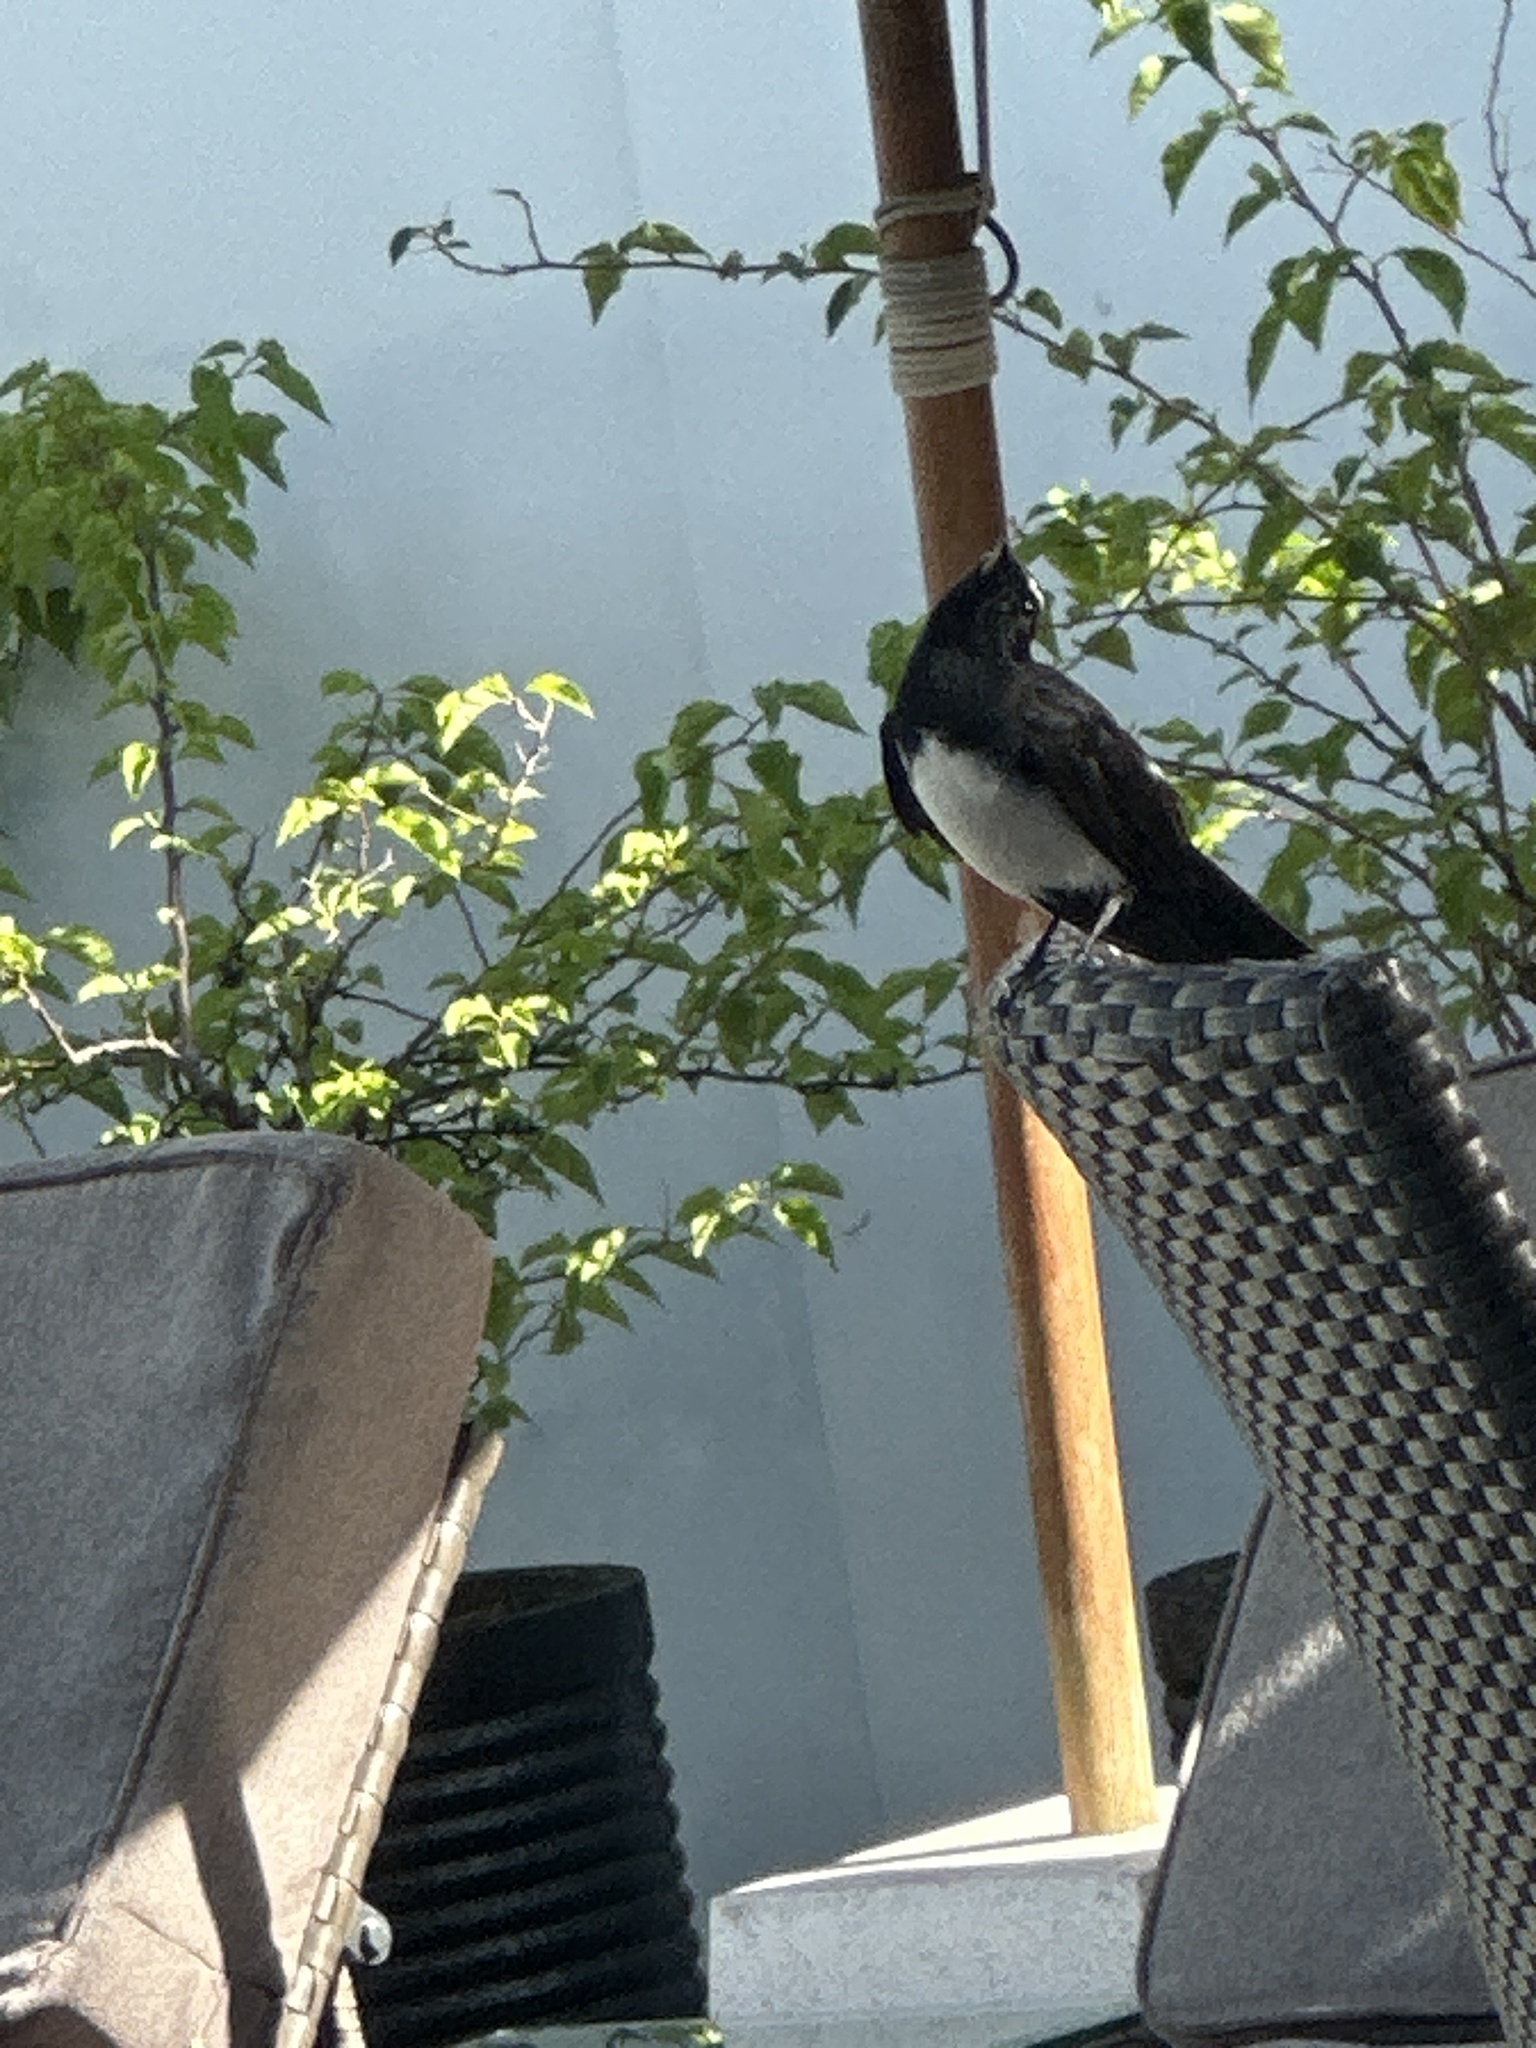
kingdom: Animalia
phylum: Chordata
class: Aves
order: Passeriformes
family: Rhipiduridae
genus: Rhipidura
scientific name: Rhipidura leucophrys
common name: Willie wagtail
